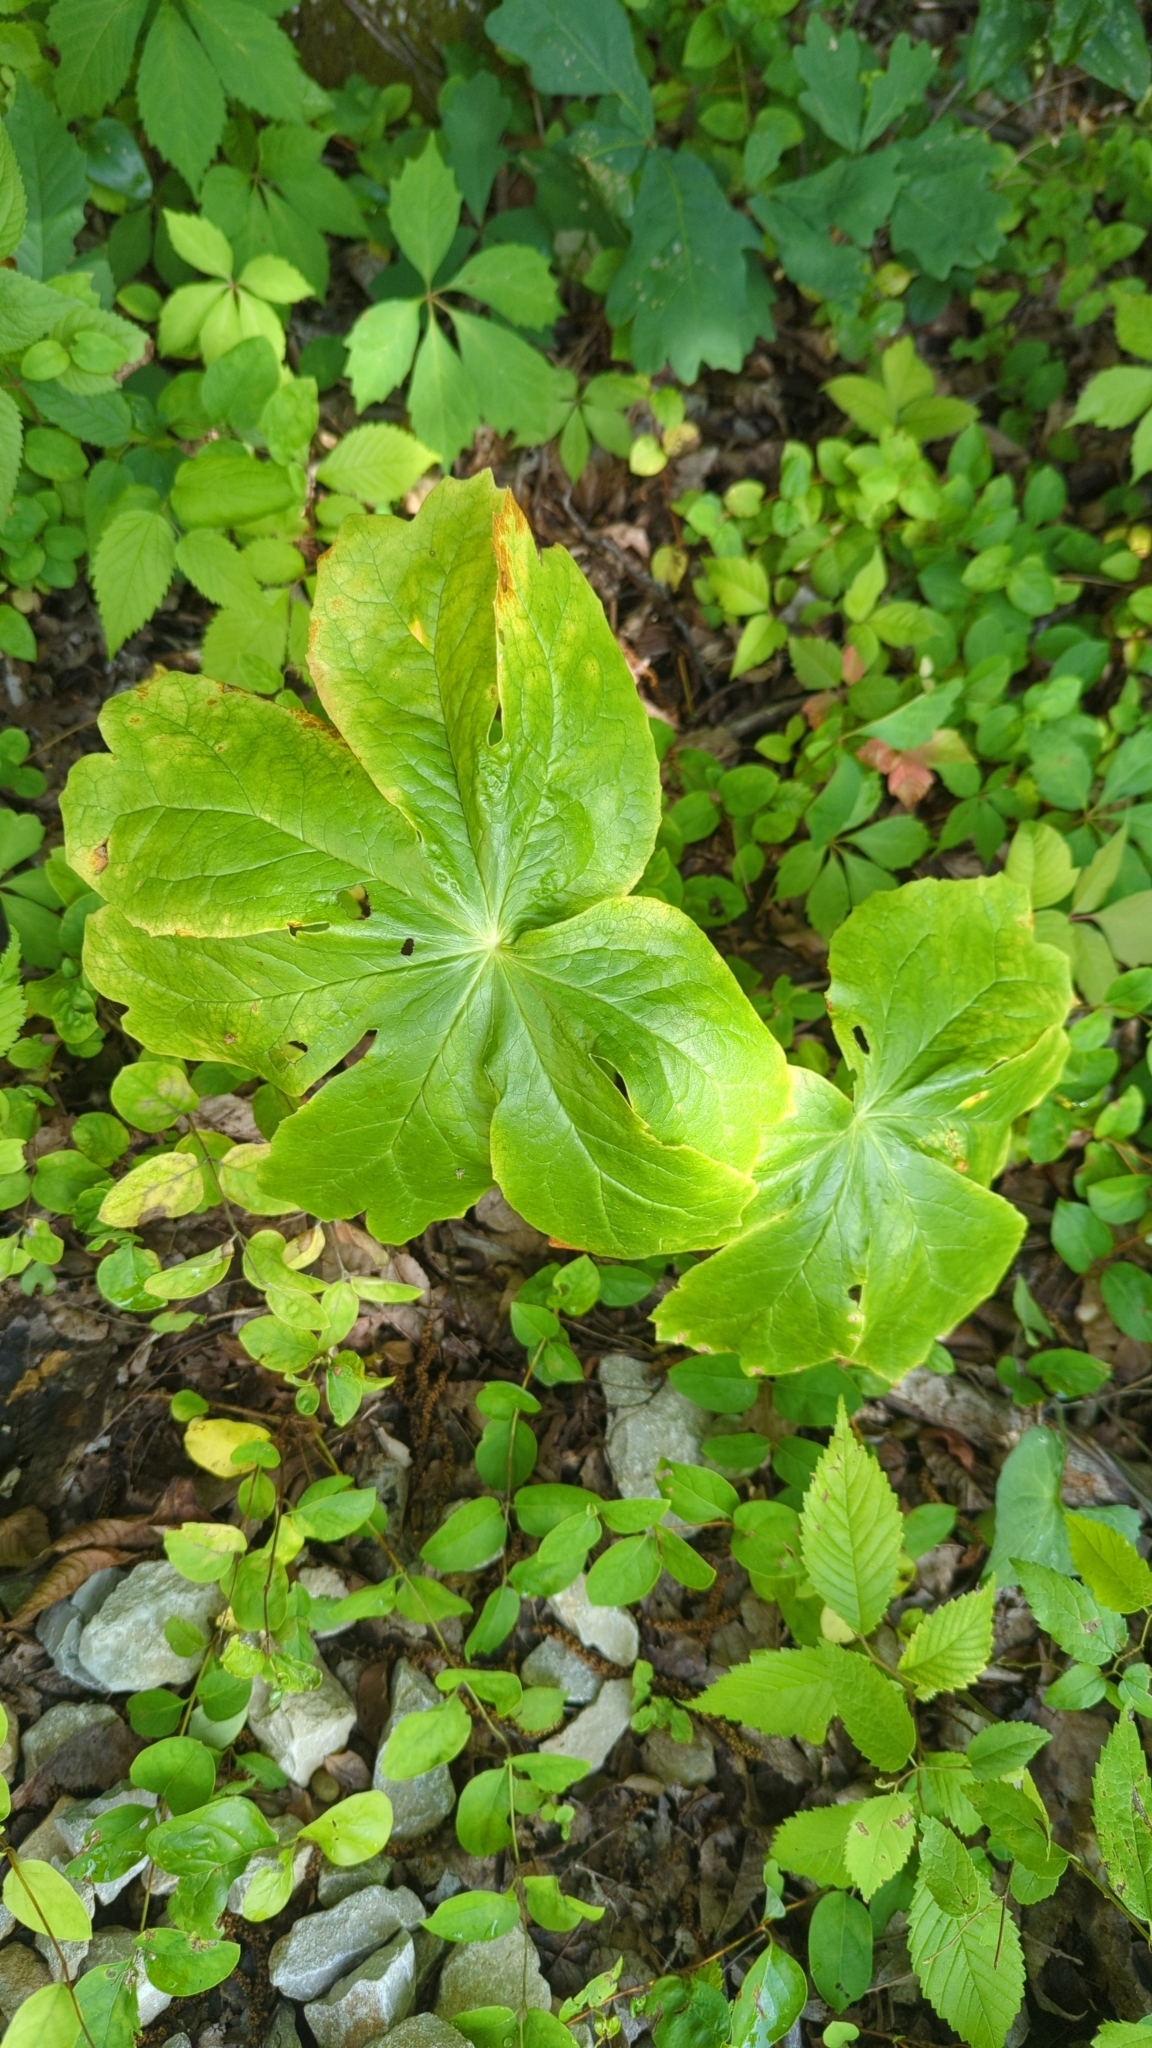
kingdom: Plantae
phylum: Tracheophyta
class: Magnoliopsida
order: Ranunculales
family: Berberidaceae
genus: Podophyllum
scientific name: Podophyllum peltatum
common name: Wild mandrake
